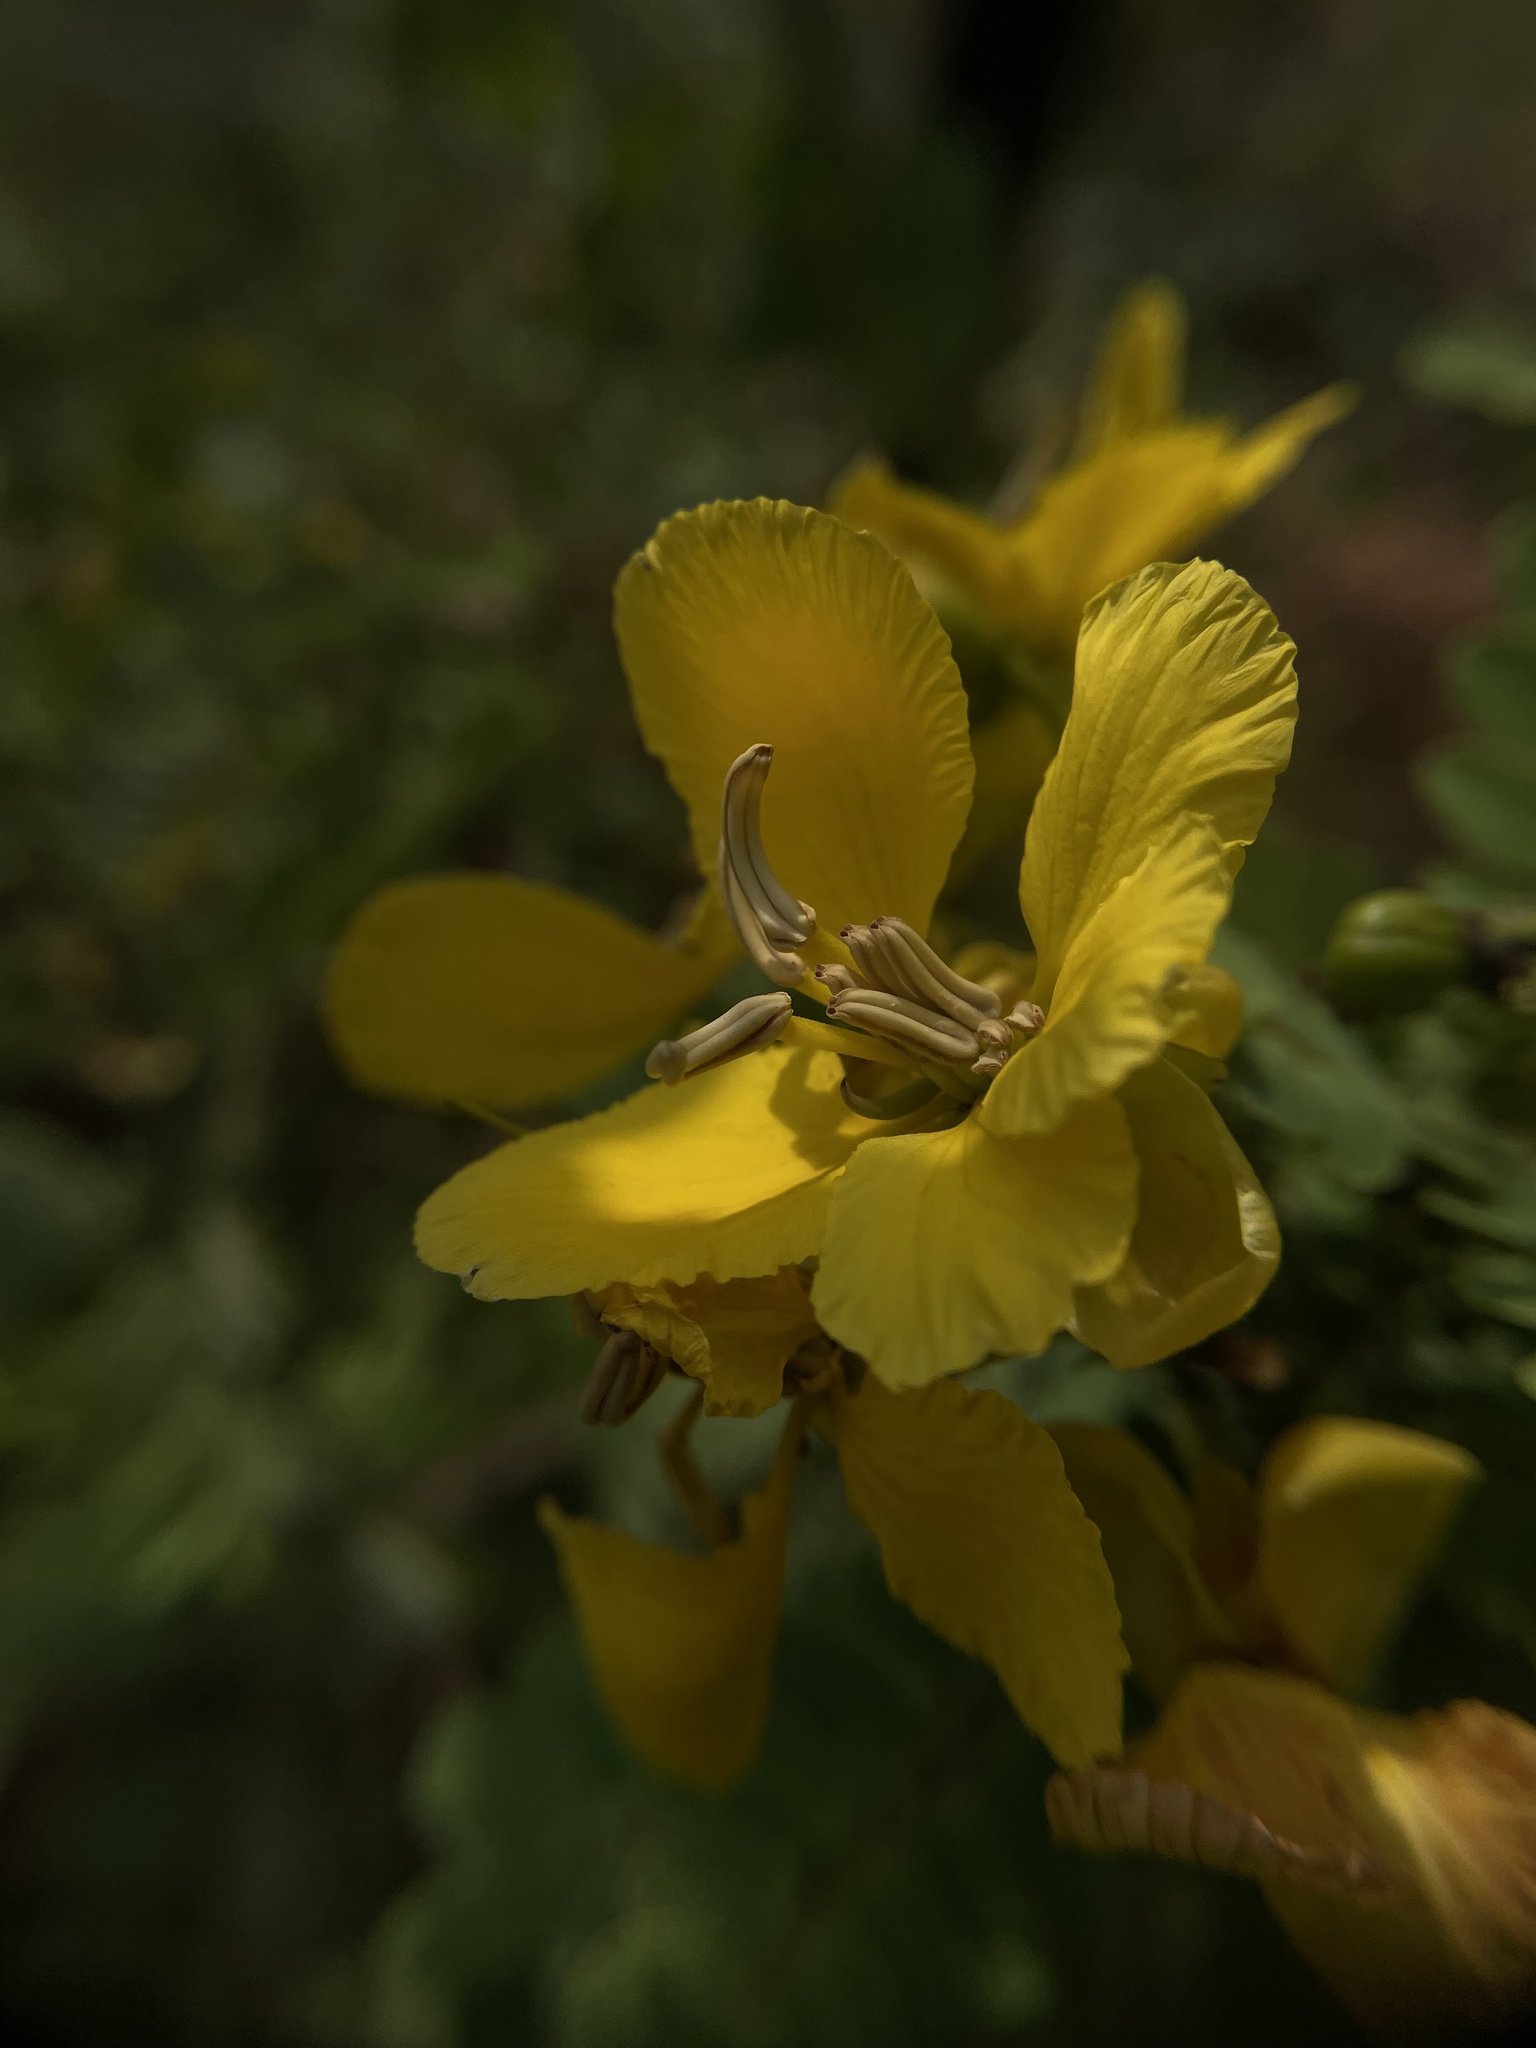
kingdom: Plantae
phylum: Tracheophyta
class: Magnoliopsida
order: Fabales
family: Fabaceae
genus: Senna
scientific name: Senna auriculata
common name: Tanner's cassia
